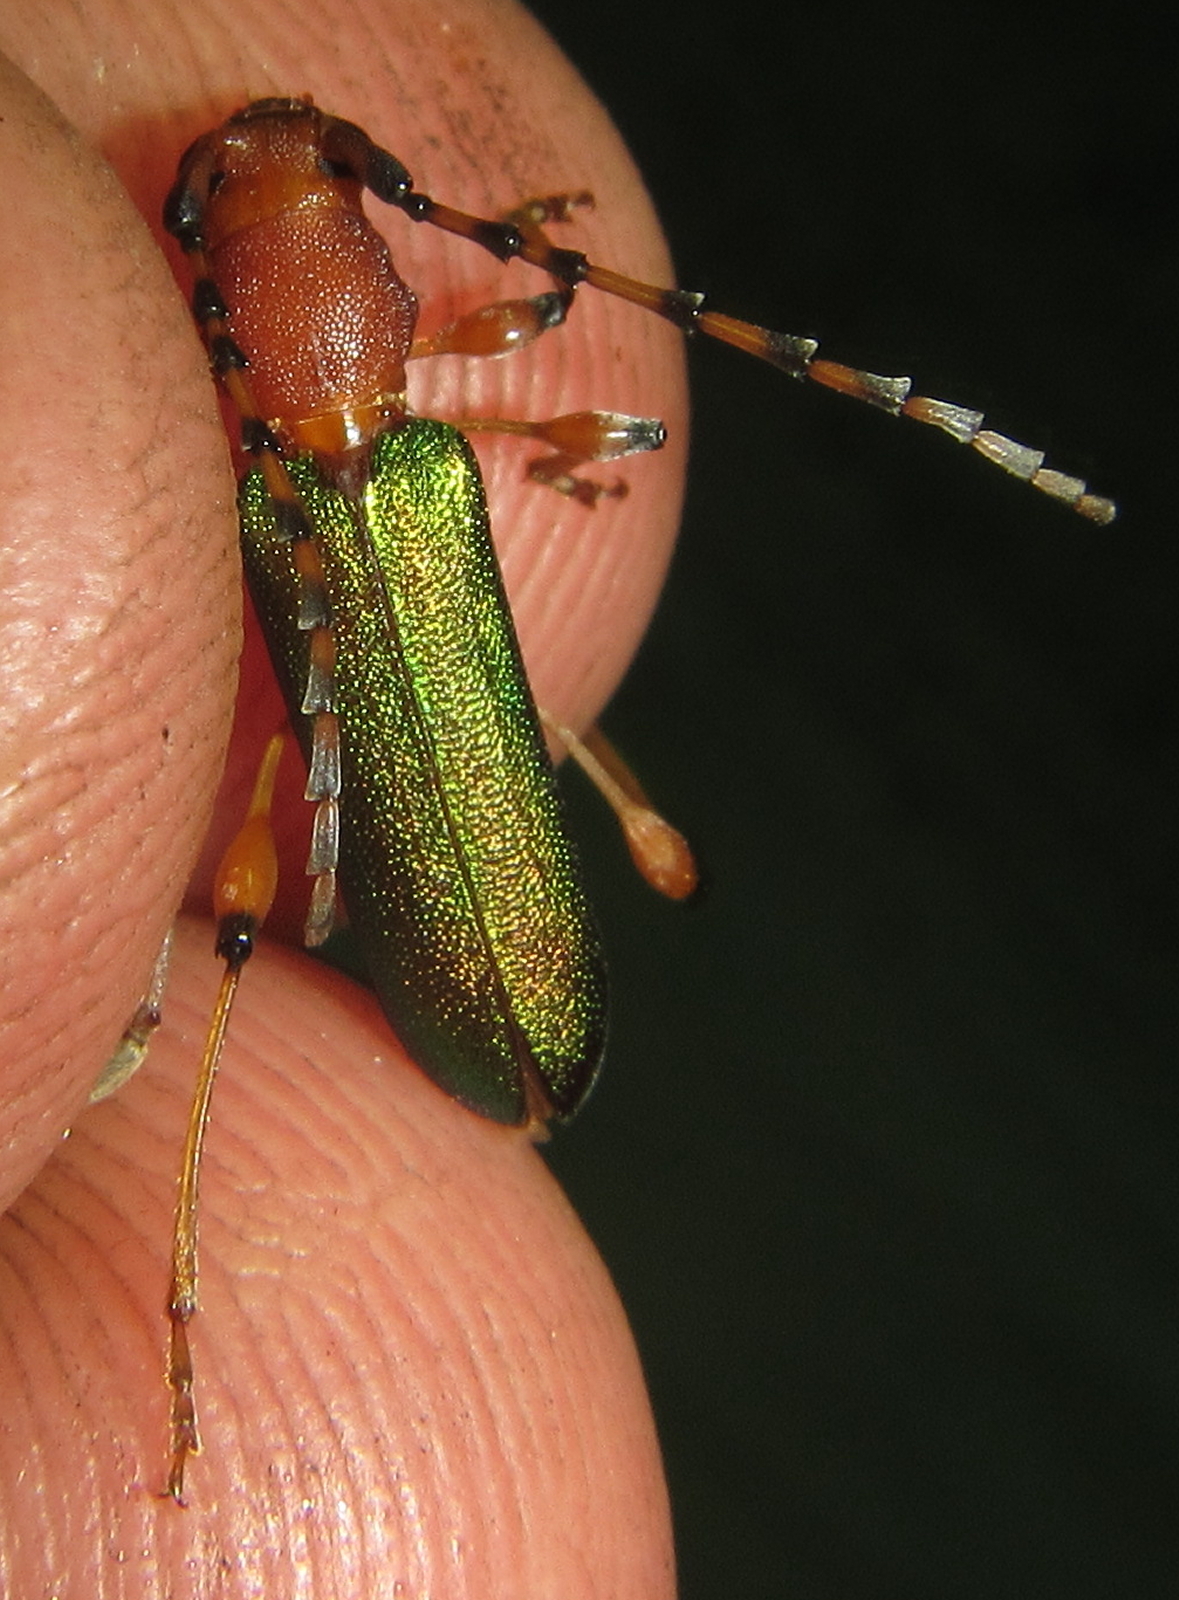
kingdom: Animalia
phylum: Arthropoda
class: Insecta
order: Coleoptera
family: Cerambycidae
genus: Cordylomera
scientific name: Cordylomera annulicornis
